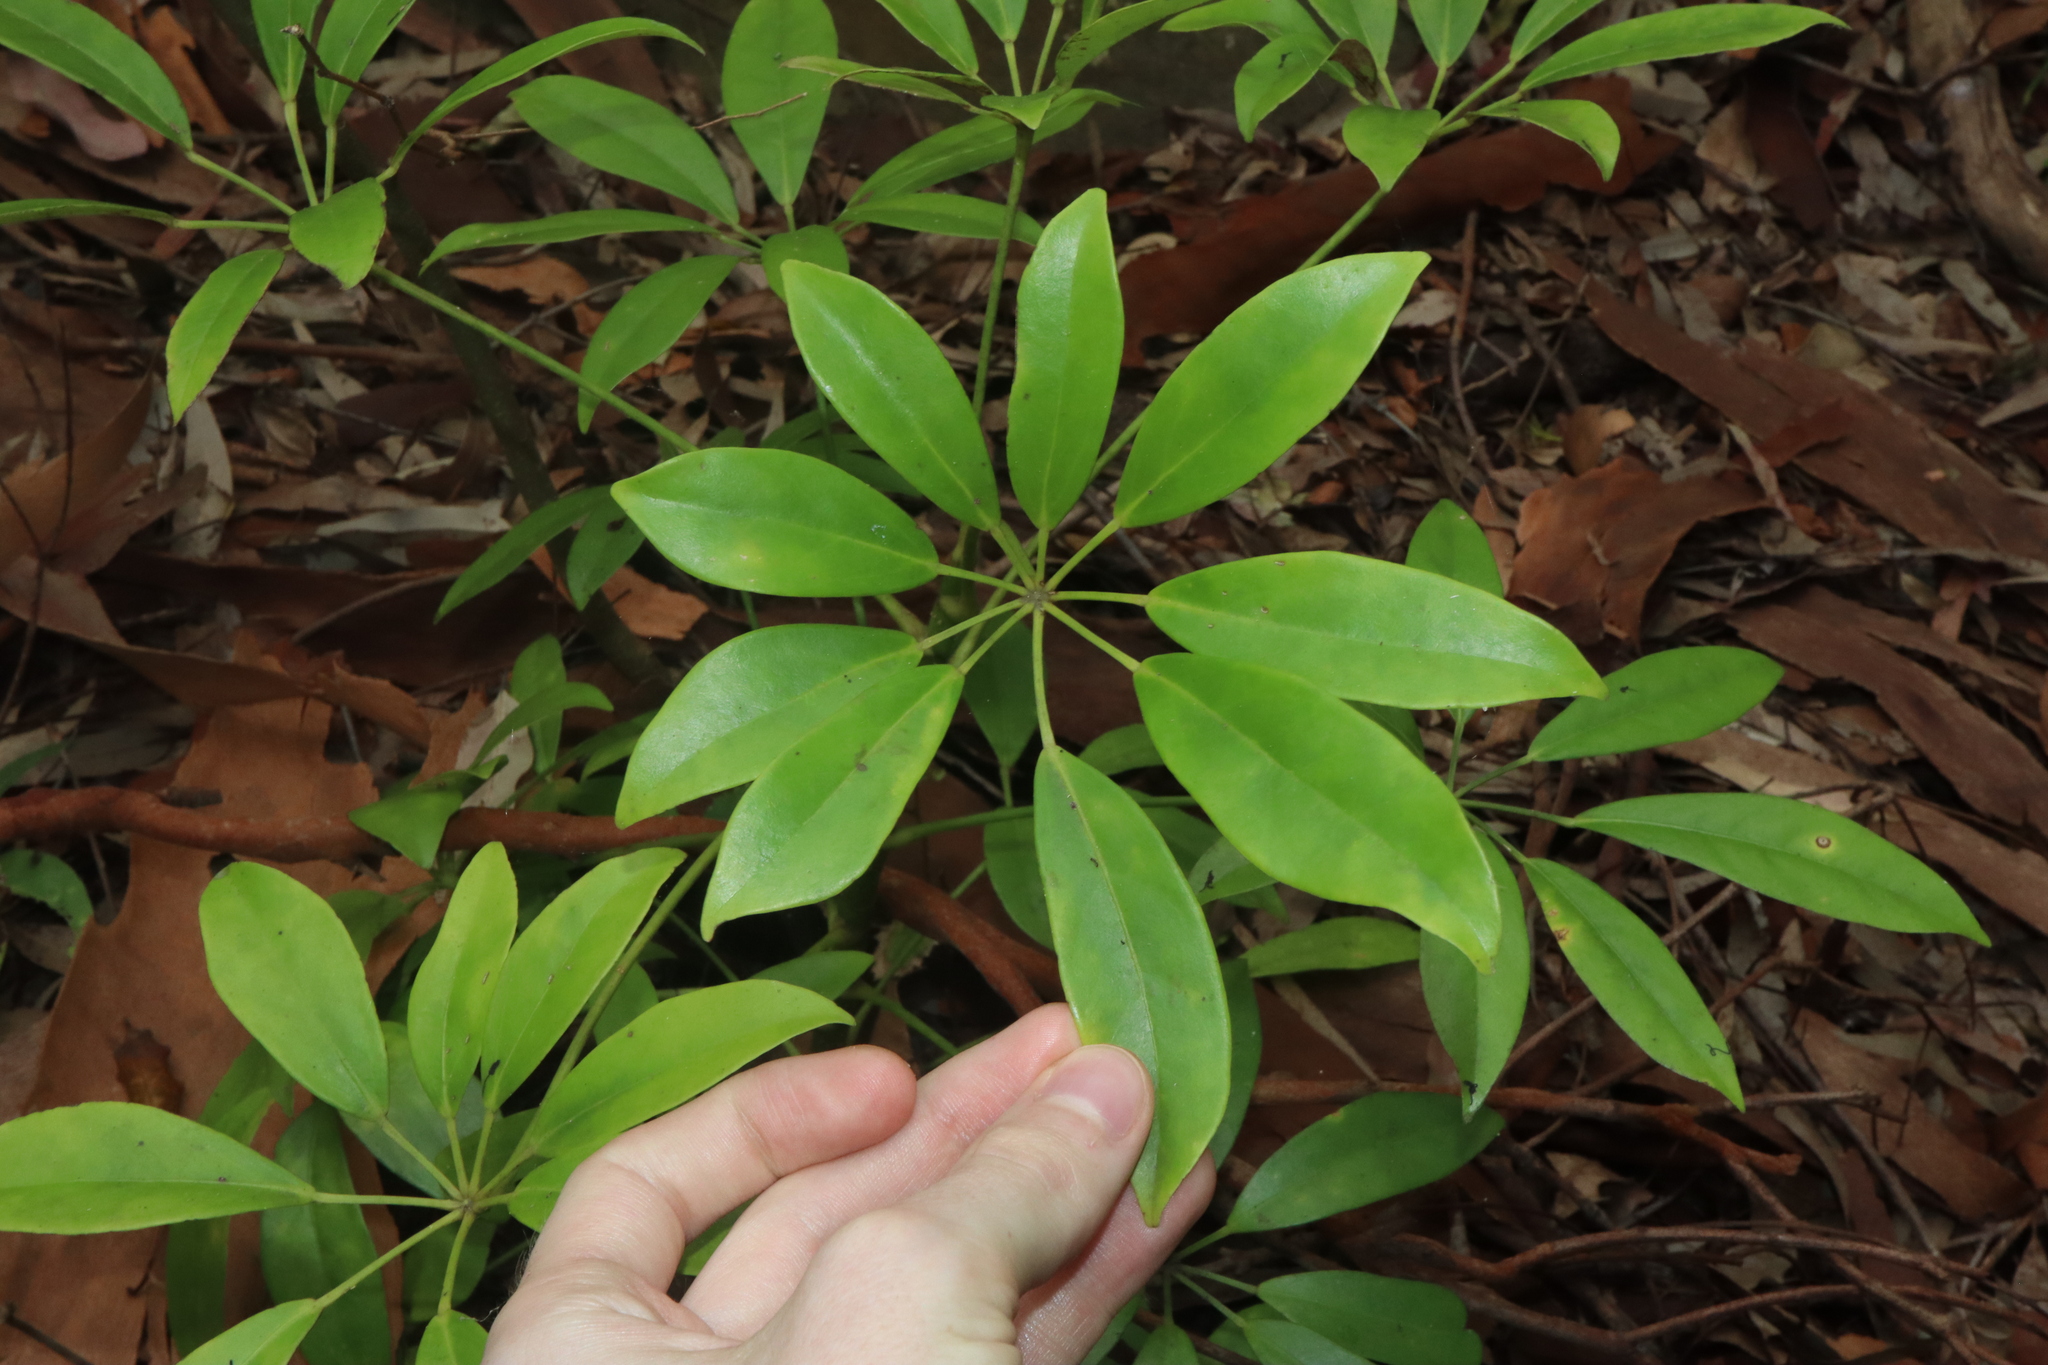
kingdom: Plantae
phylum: Tracheophyta
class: Magnoliopsida
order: Apiales
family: Araliaceae
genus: Heptapleurum
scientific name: Heptapleurum arboricola
